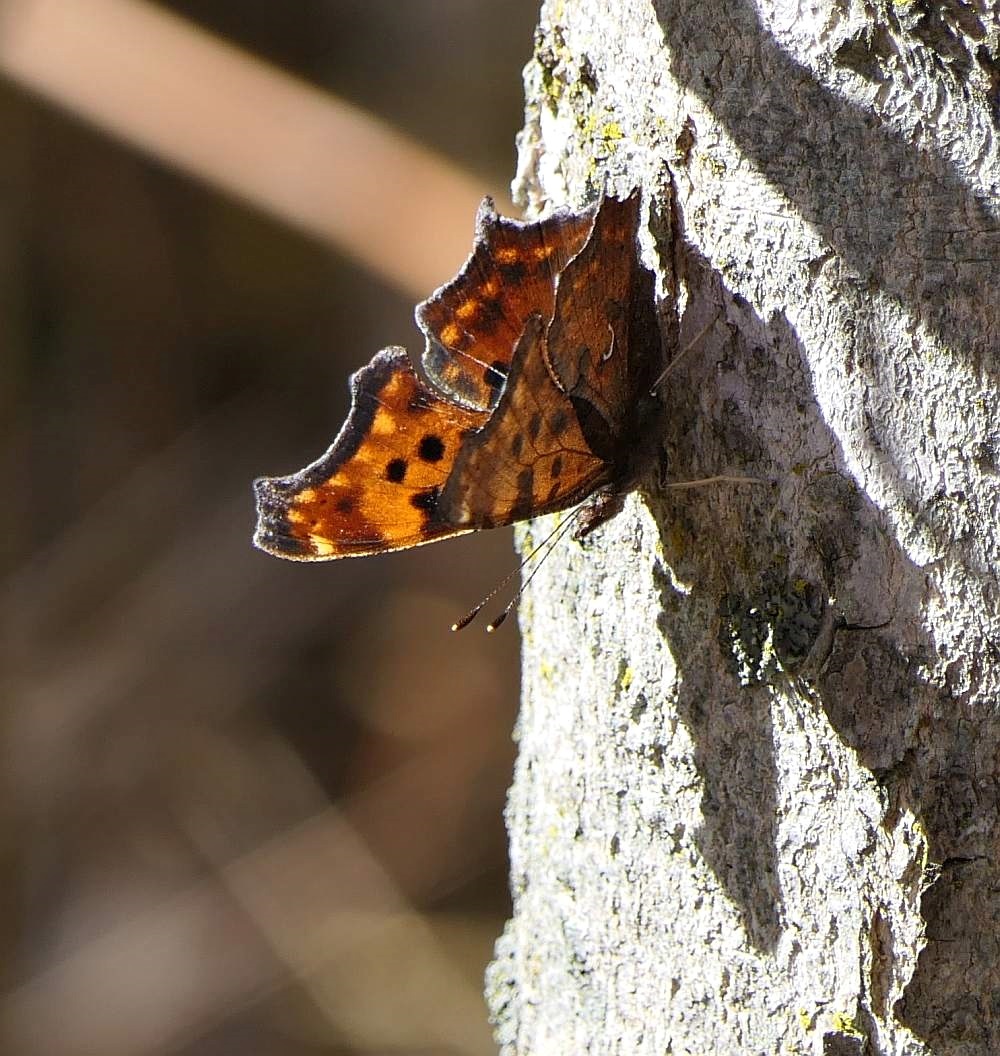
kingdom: Animalia
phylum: Arthropoda
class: Insecta
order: Lepidoptera
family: Nymphalidae
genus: Polygonia
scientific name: Polygonia comma
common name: Eastern comma
